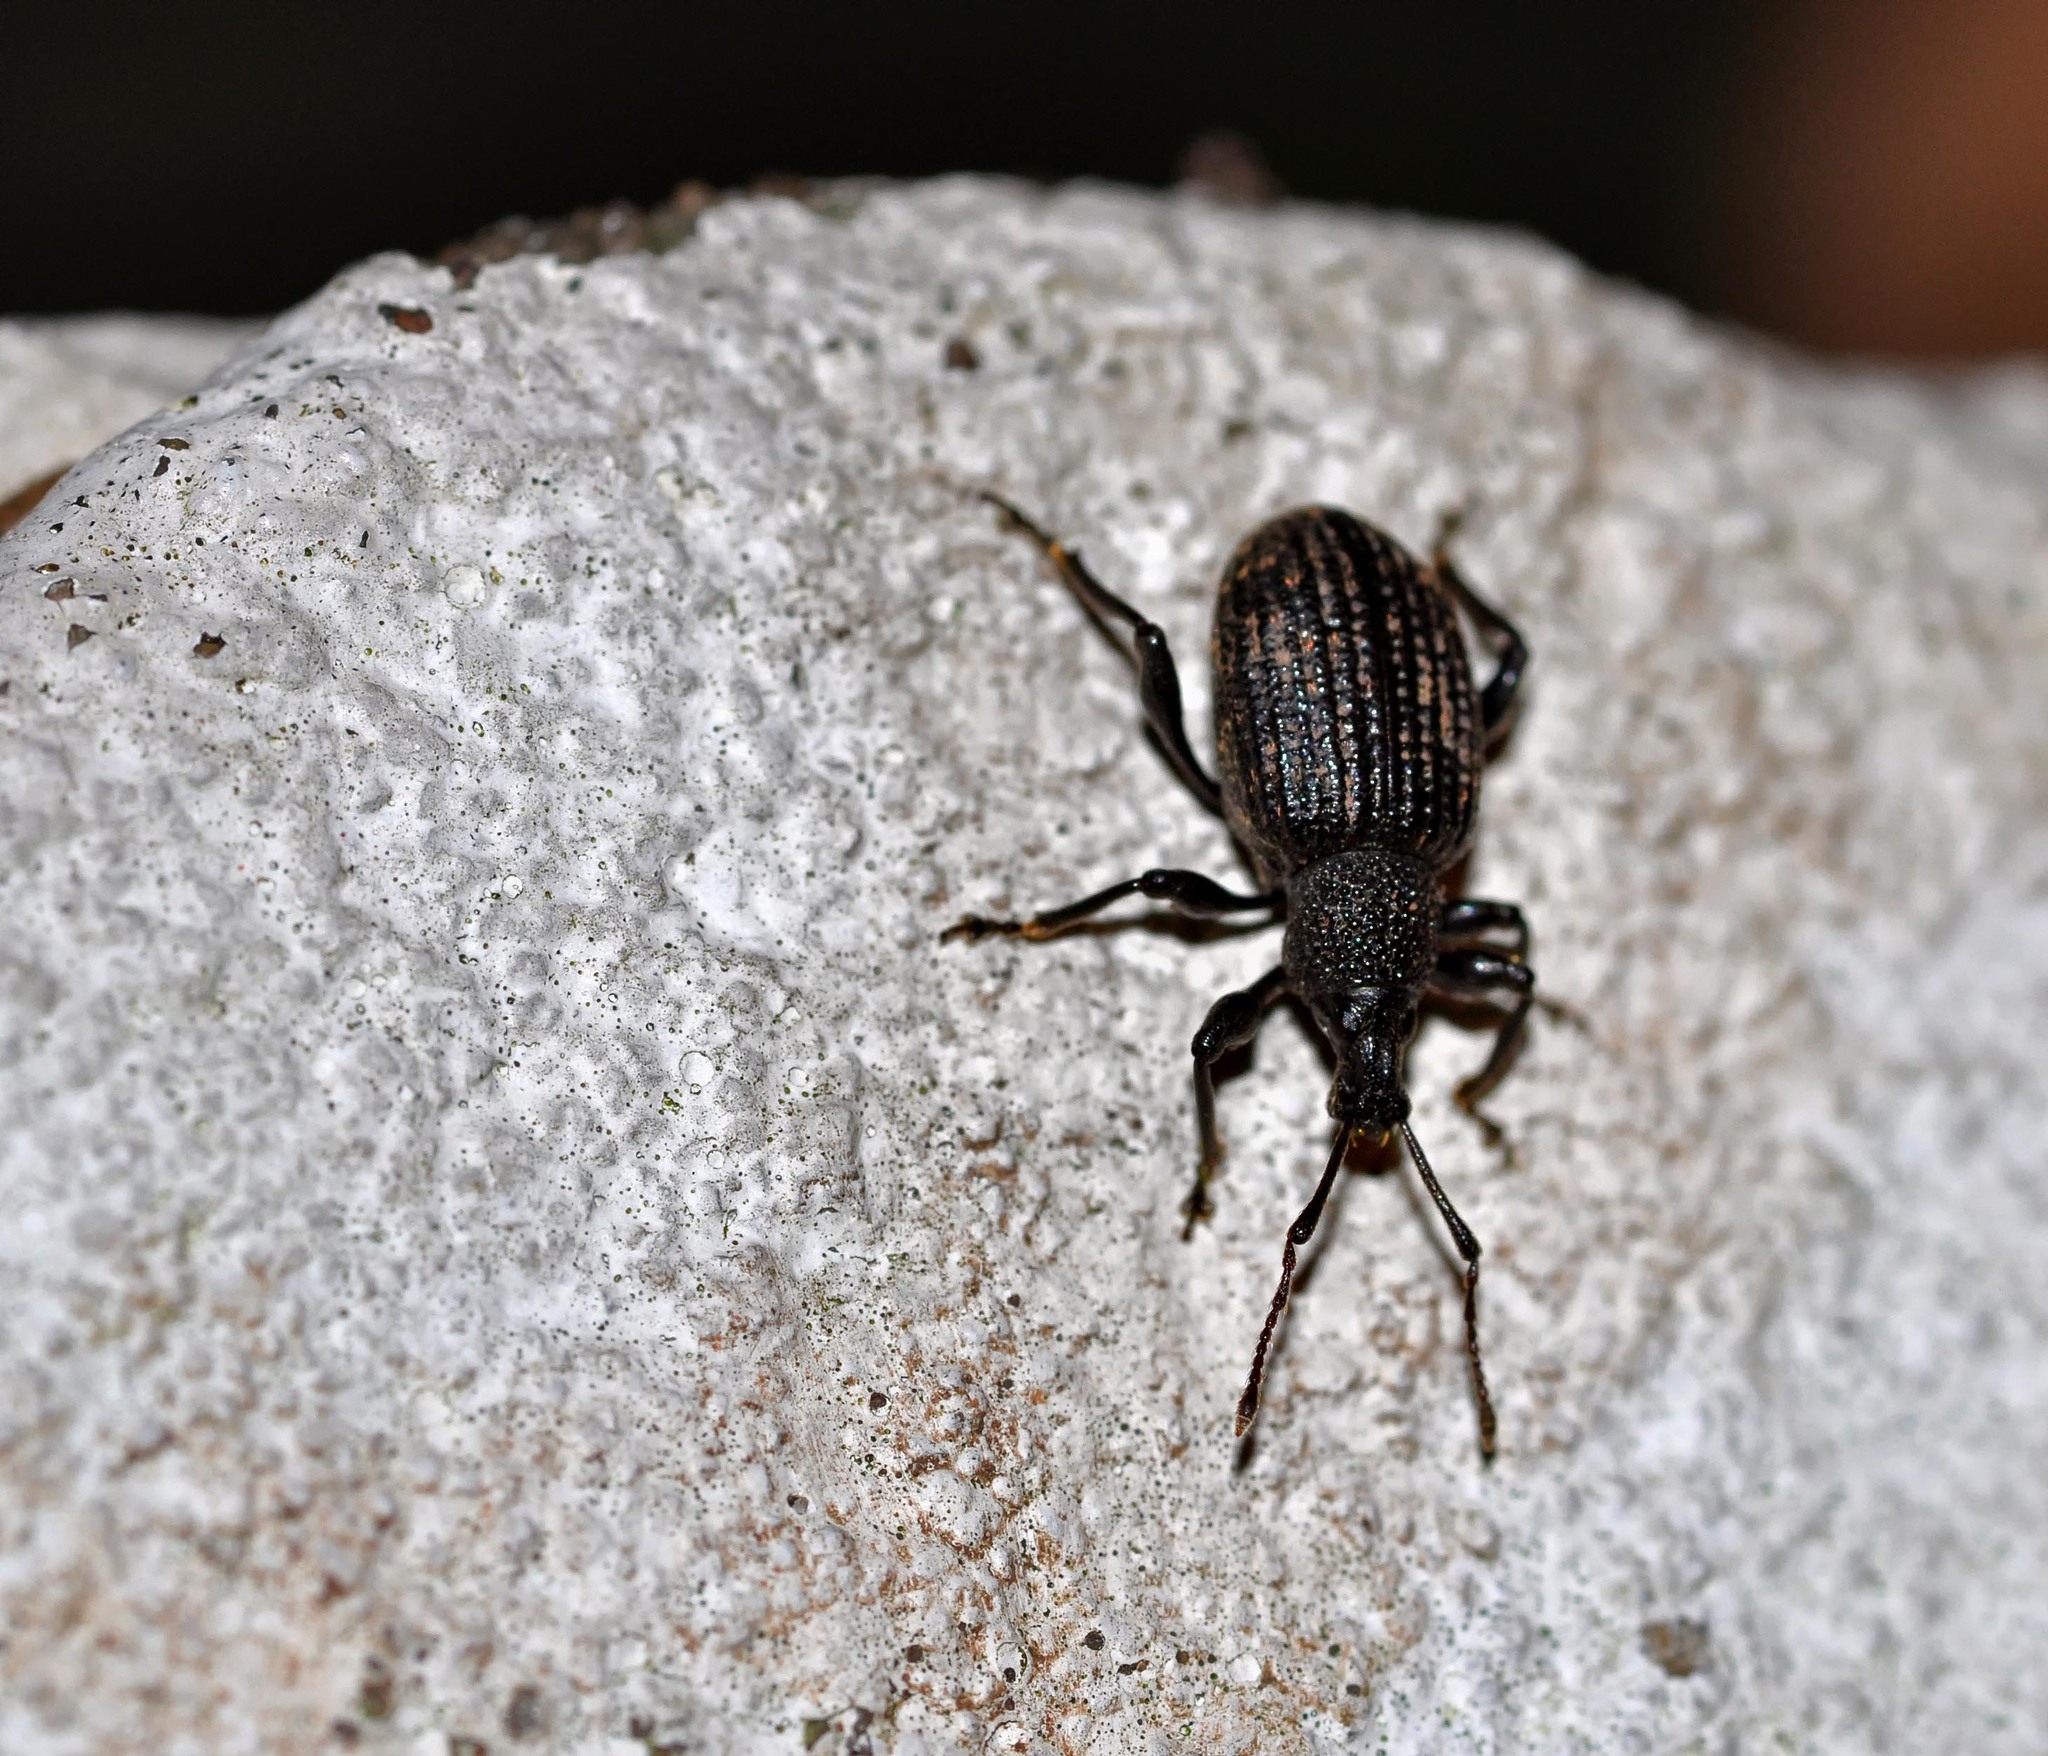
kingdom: Animalia
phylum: Arthropoda
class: Insecta
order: Coleoptera
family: Curculionidae
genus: Otiorhynchus
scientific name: Otiorhynchus sulcatus
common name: Black vine weevil
